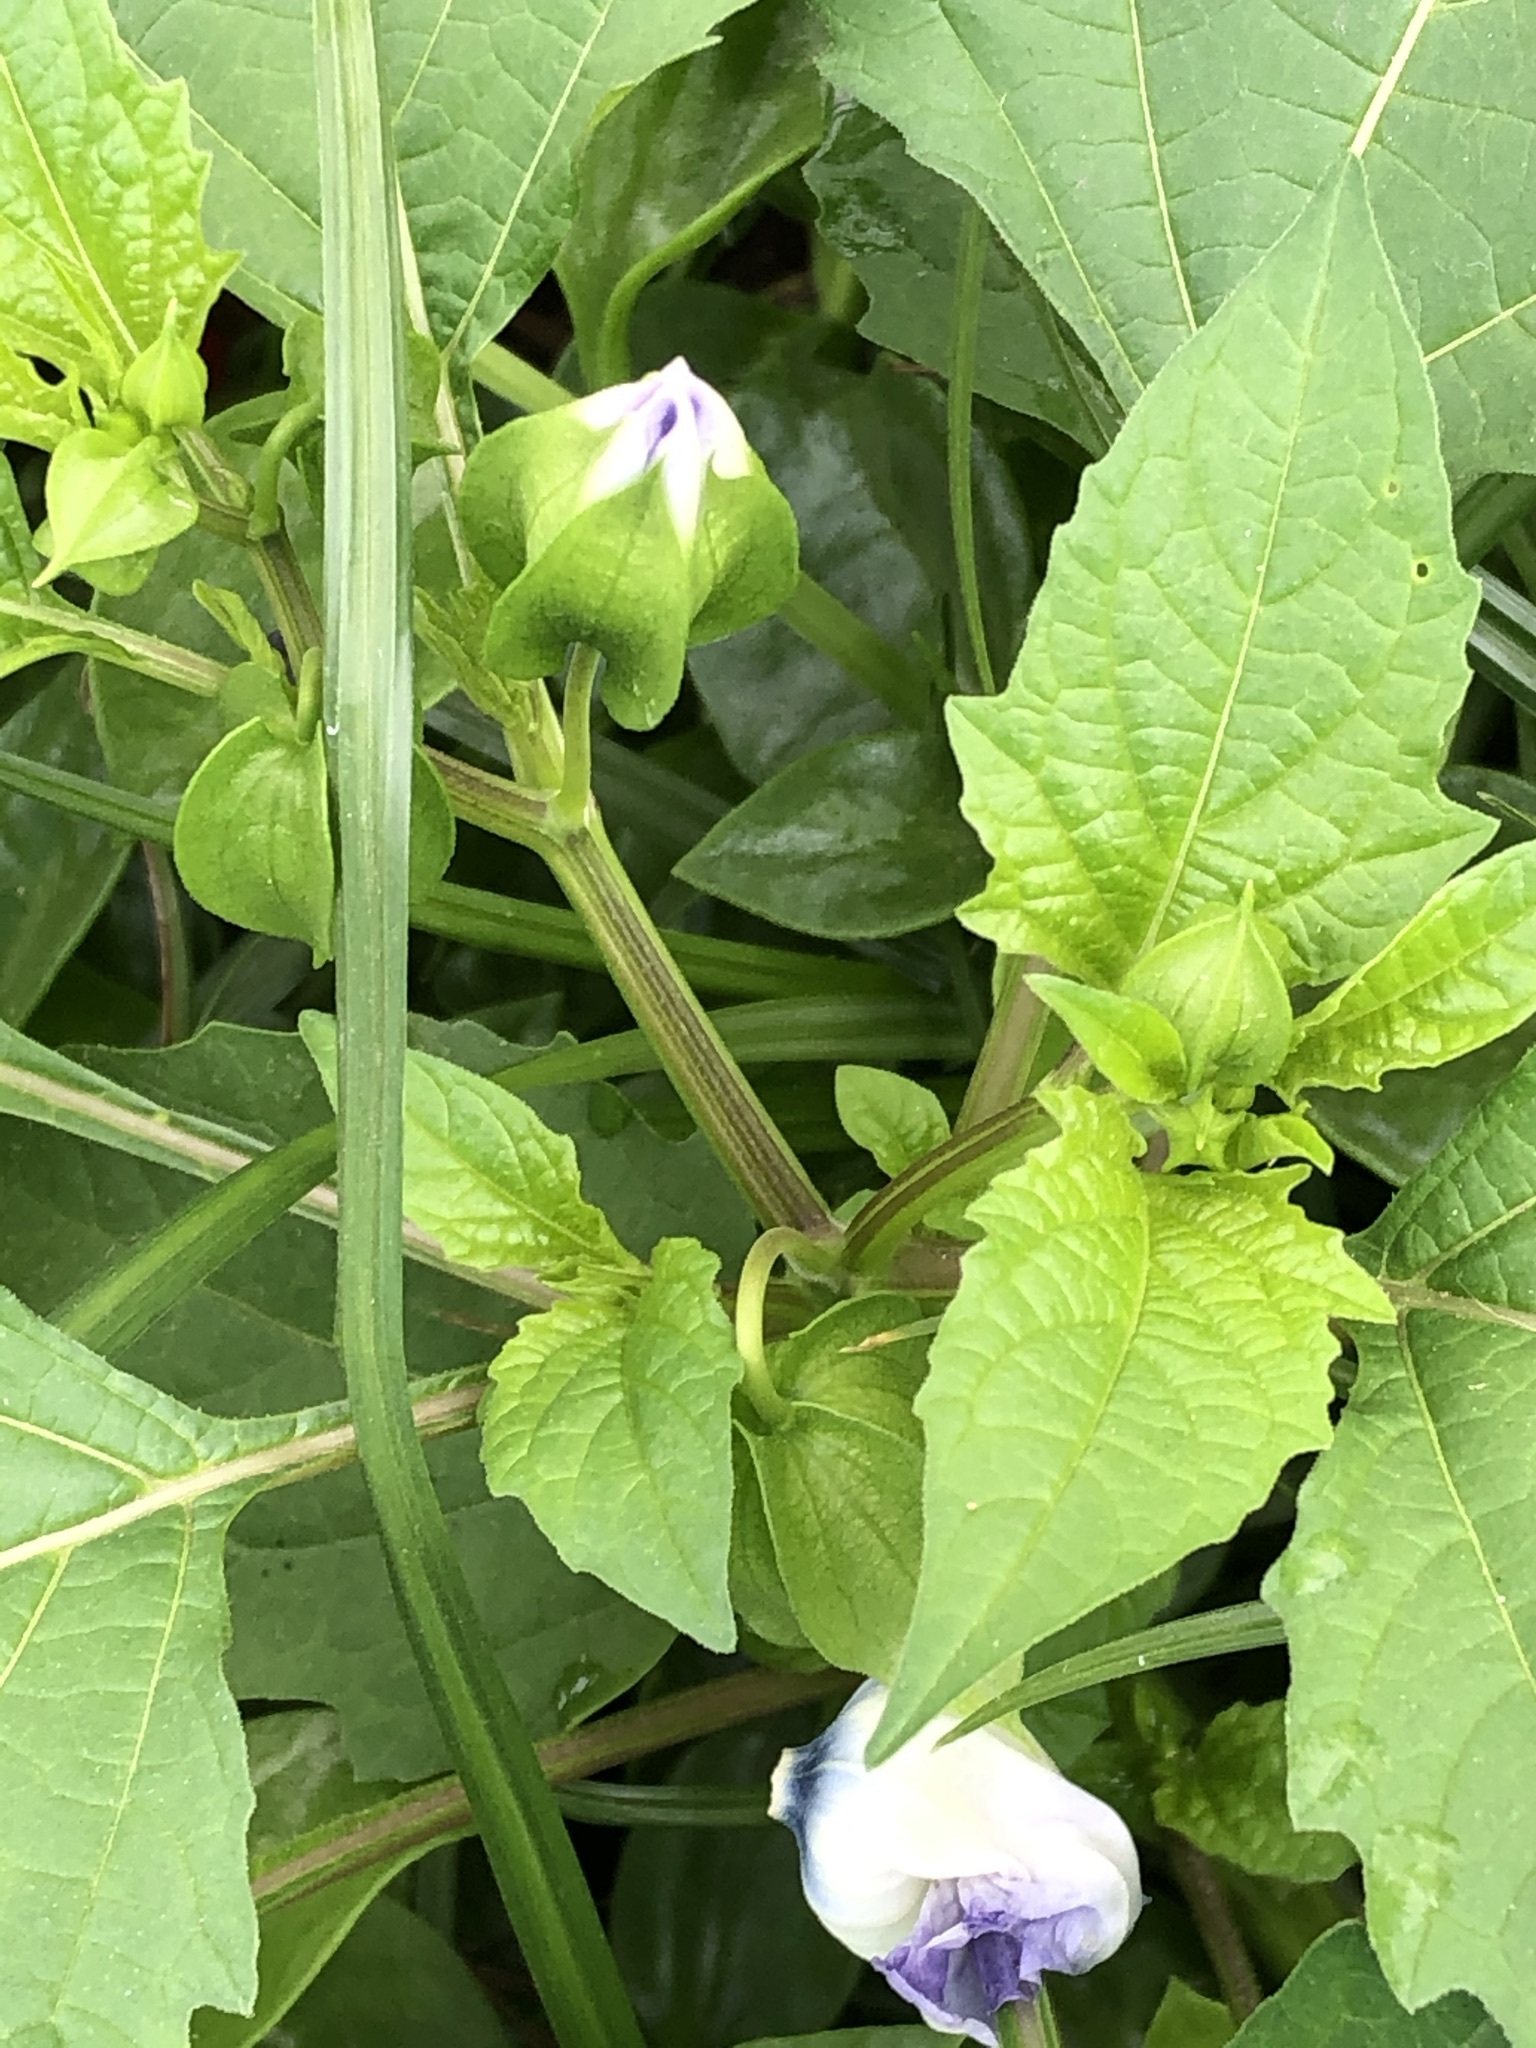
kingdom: Plantae
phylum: Tracheophyta
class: Magnoliopsida
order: Solanales
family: Solanaceae
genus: Nicandra
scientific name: Nicandra physalodes
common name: Apple-of-peru
